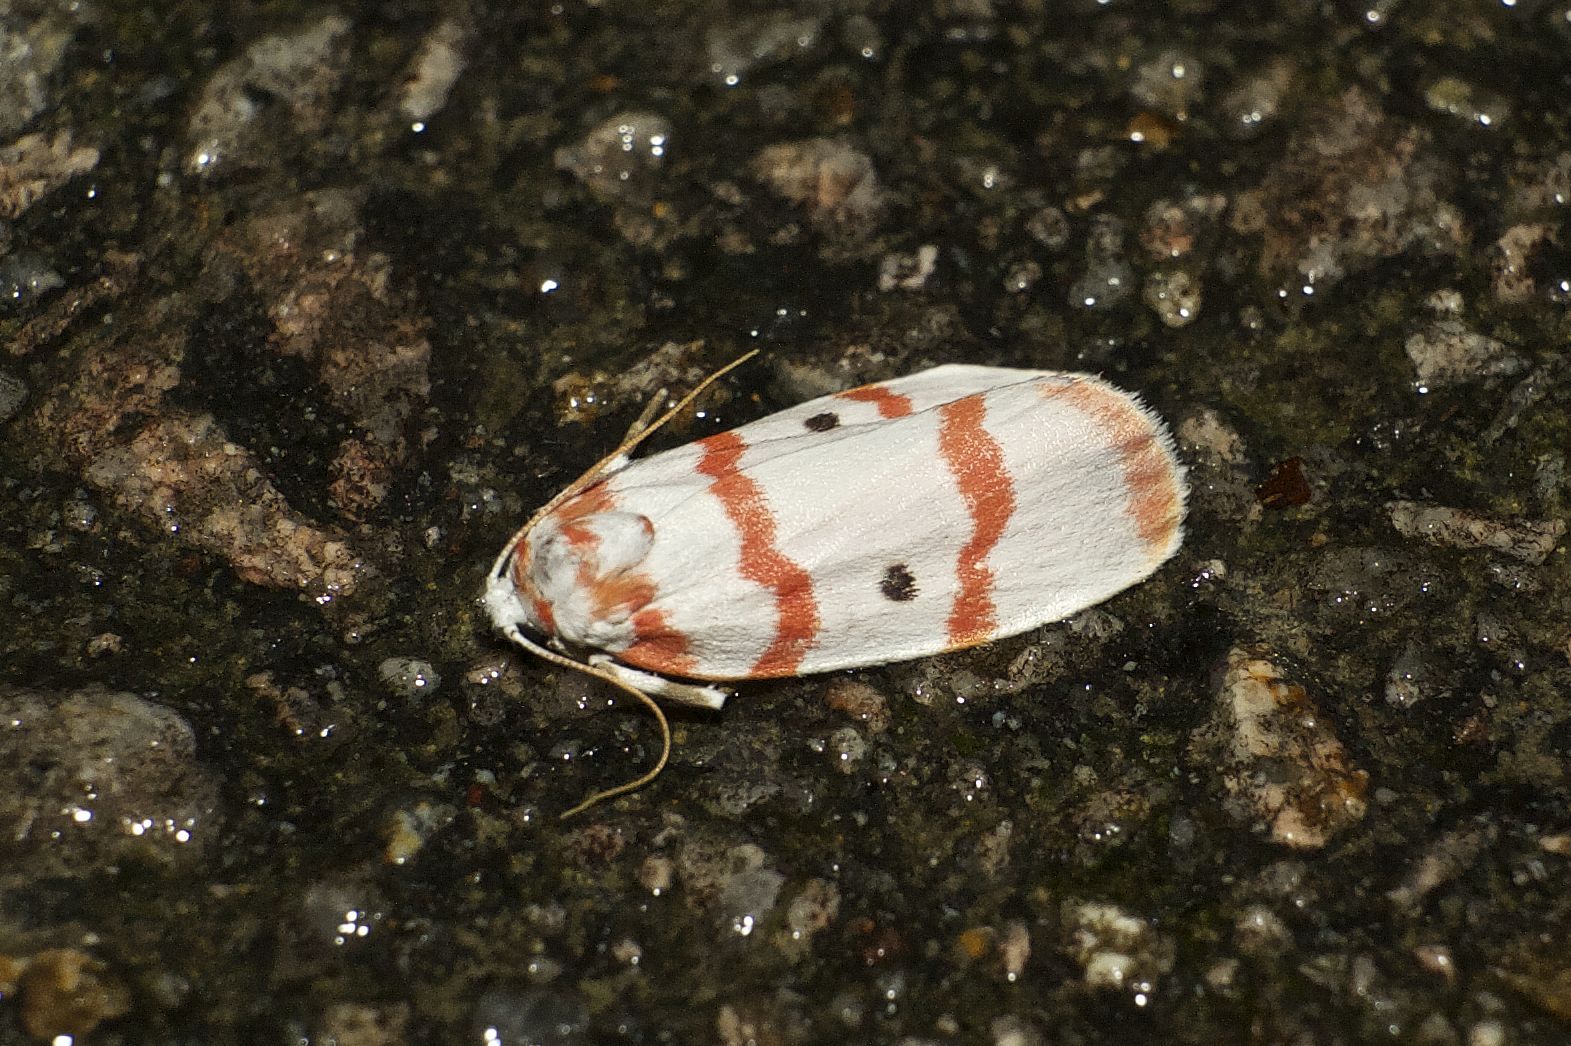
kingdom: Animalia
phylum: Arthropoda
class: Insecta
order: Lepidoptera
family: Erebidae
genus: Cyana
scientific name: Cyana fasciola
